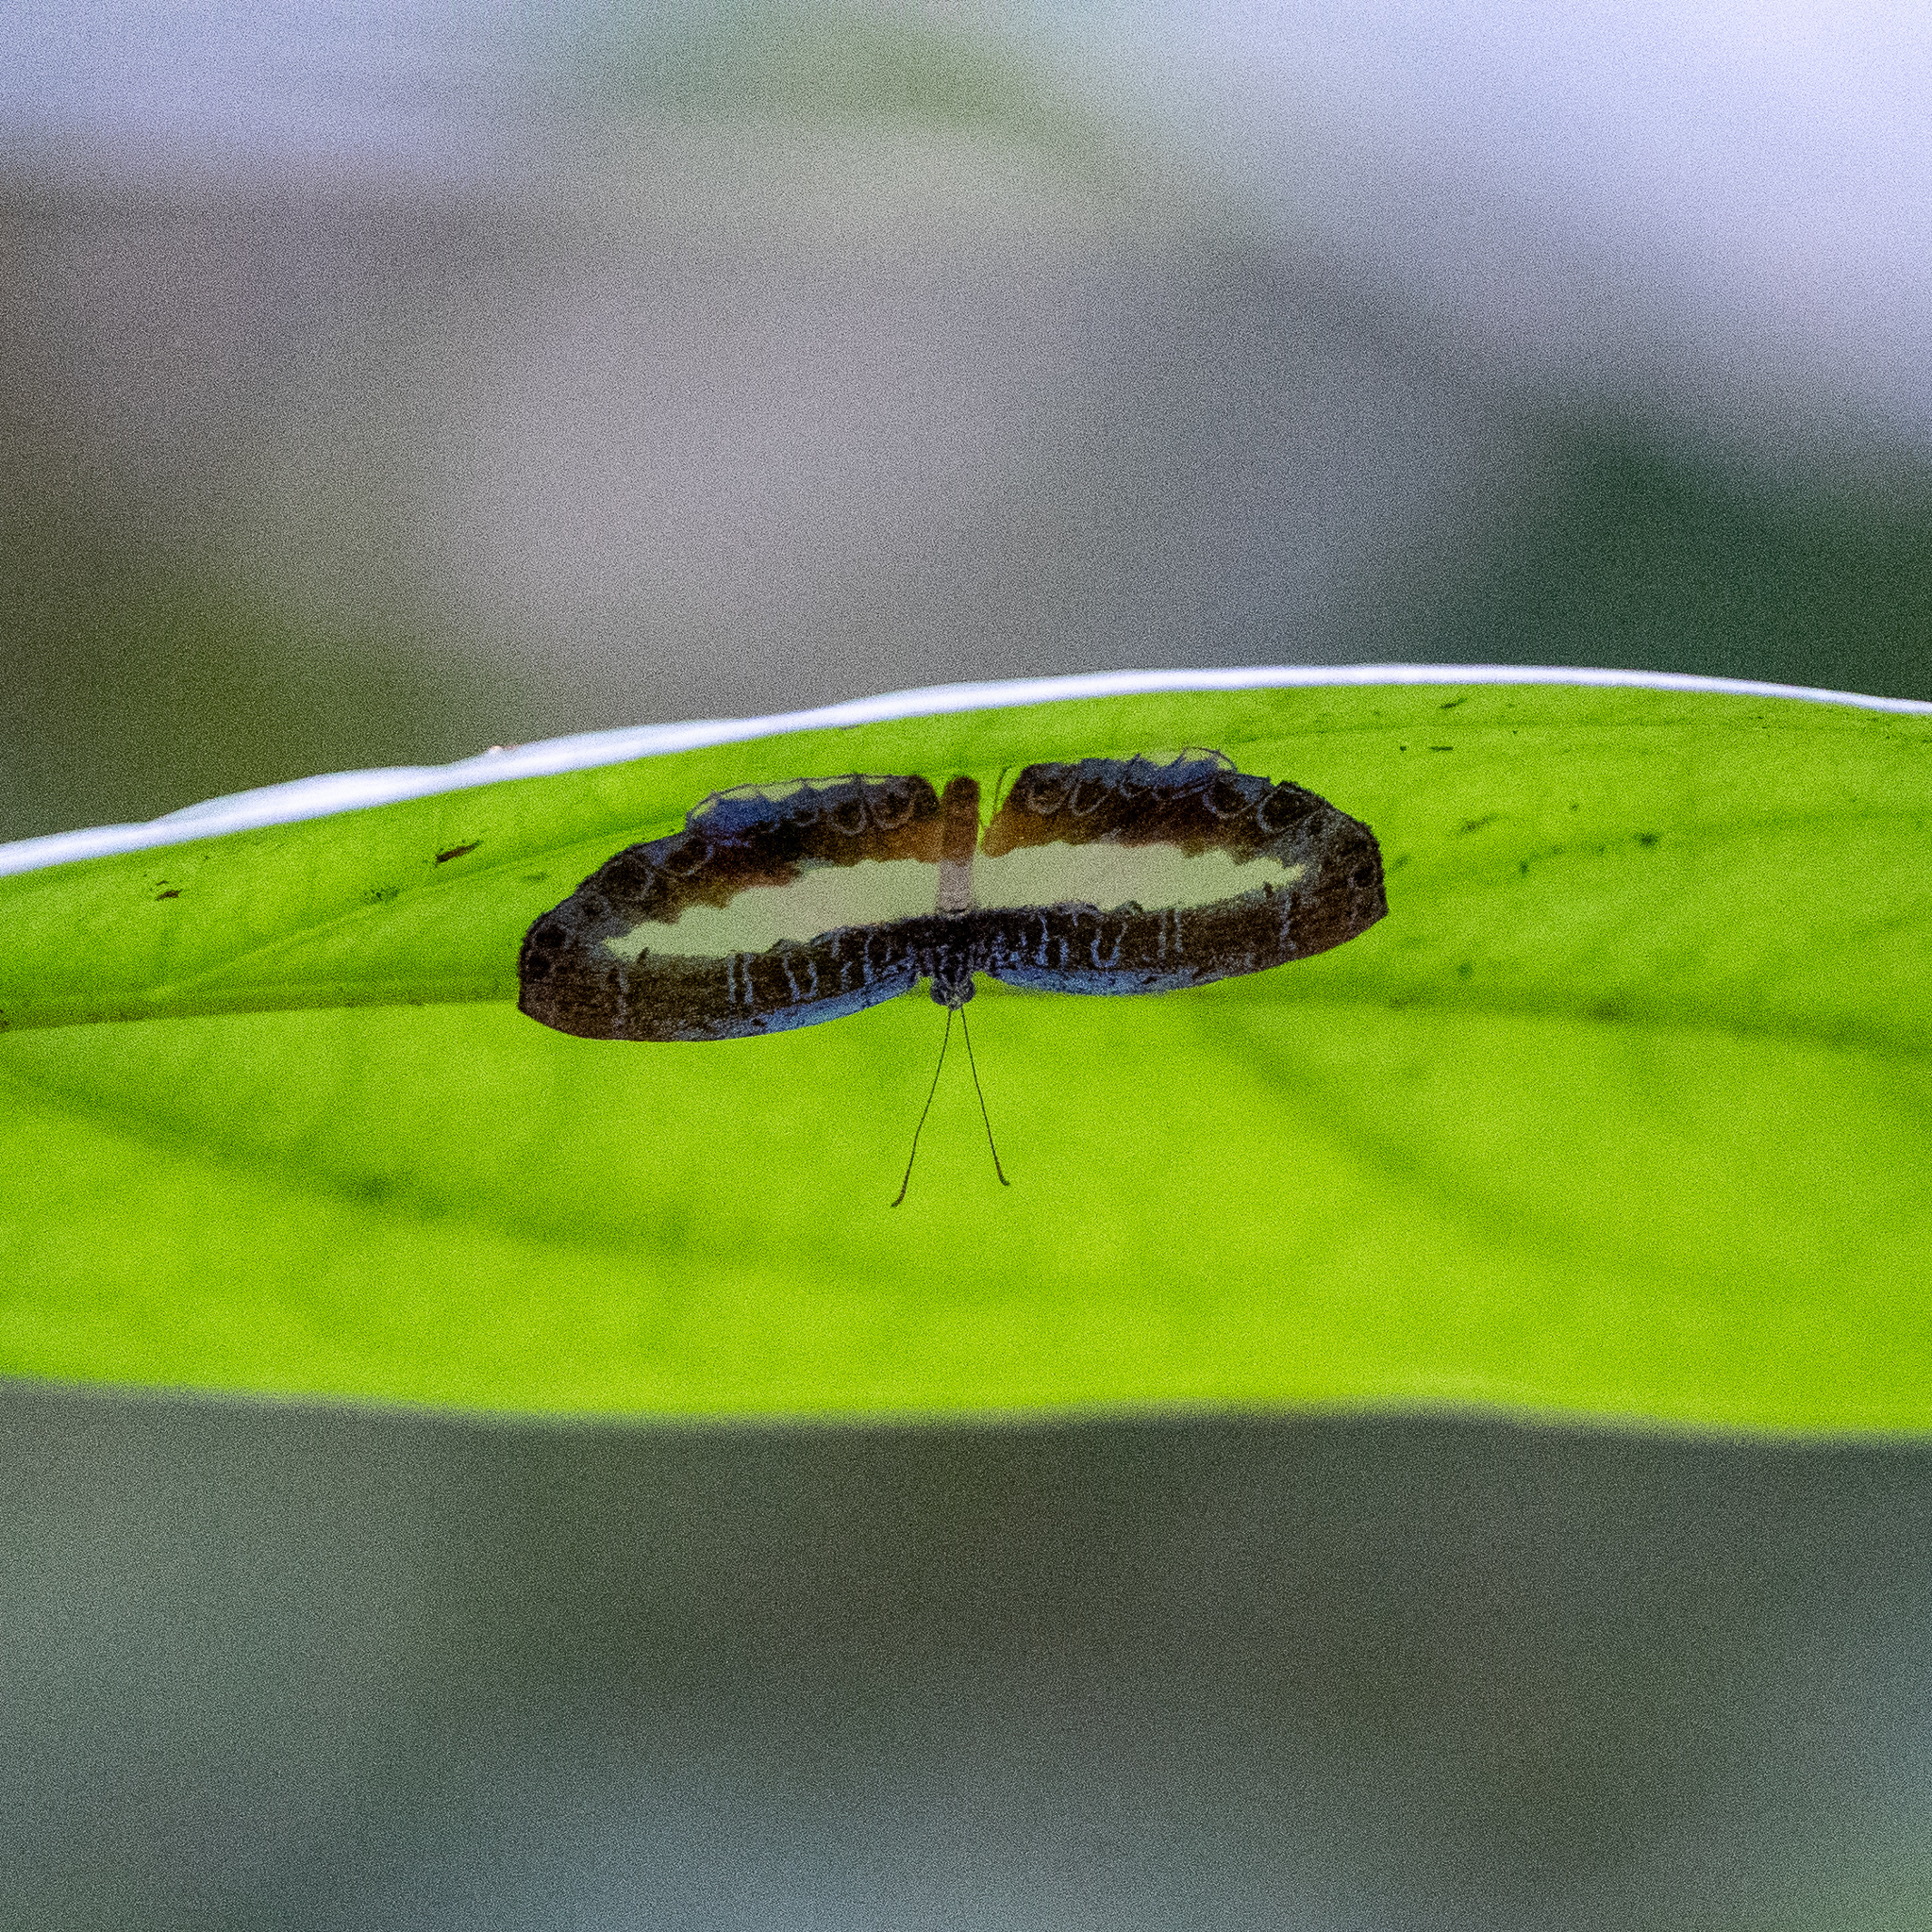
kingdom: Animalia
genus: Nymphidium
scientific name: Nymphidium mantus
